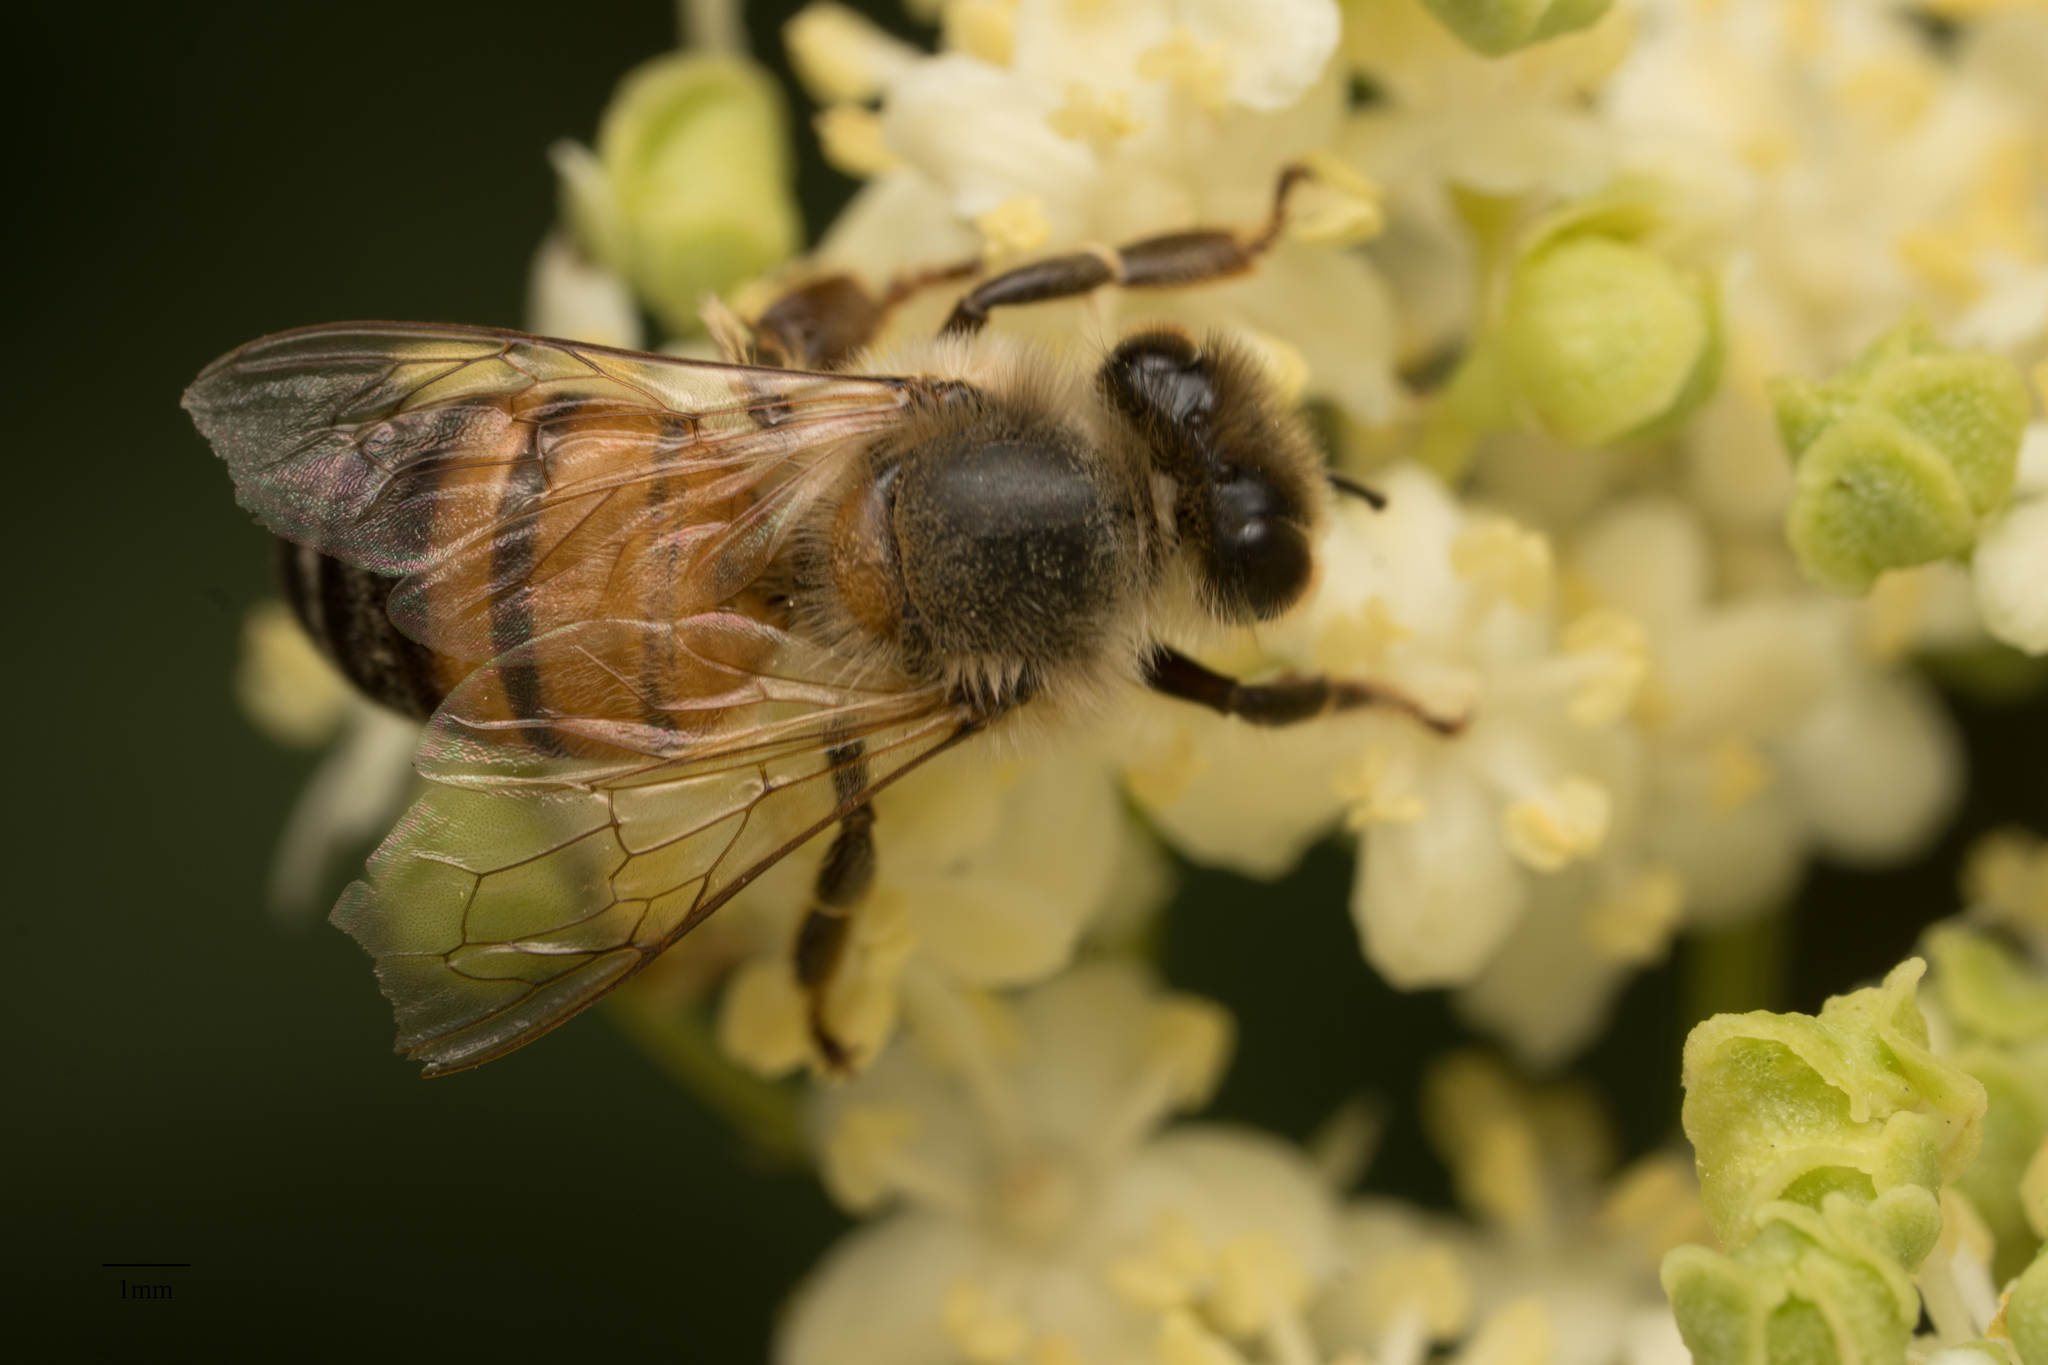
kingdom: Animalia
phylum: Arthropoda
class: Insecta
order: Hymenoptera
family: Apidae
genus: Apis
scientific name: Apis mellifera
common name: Honey bee
